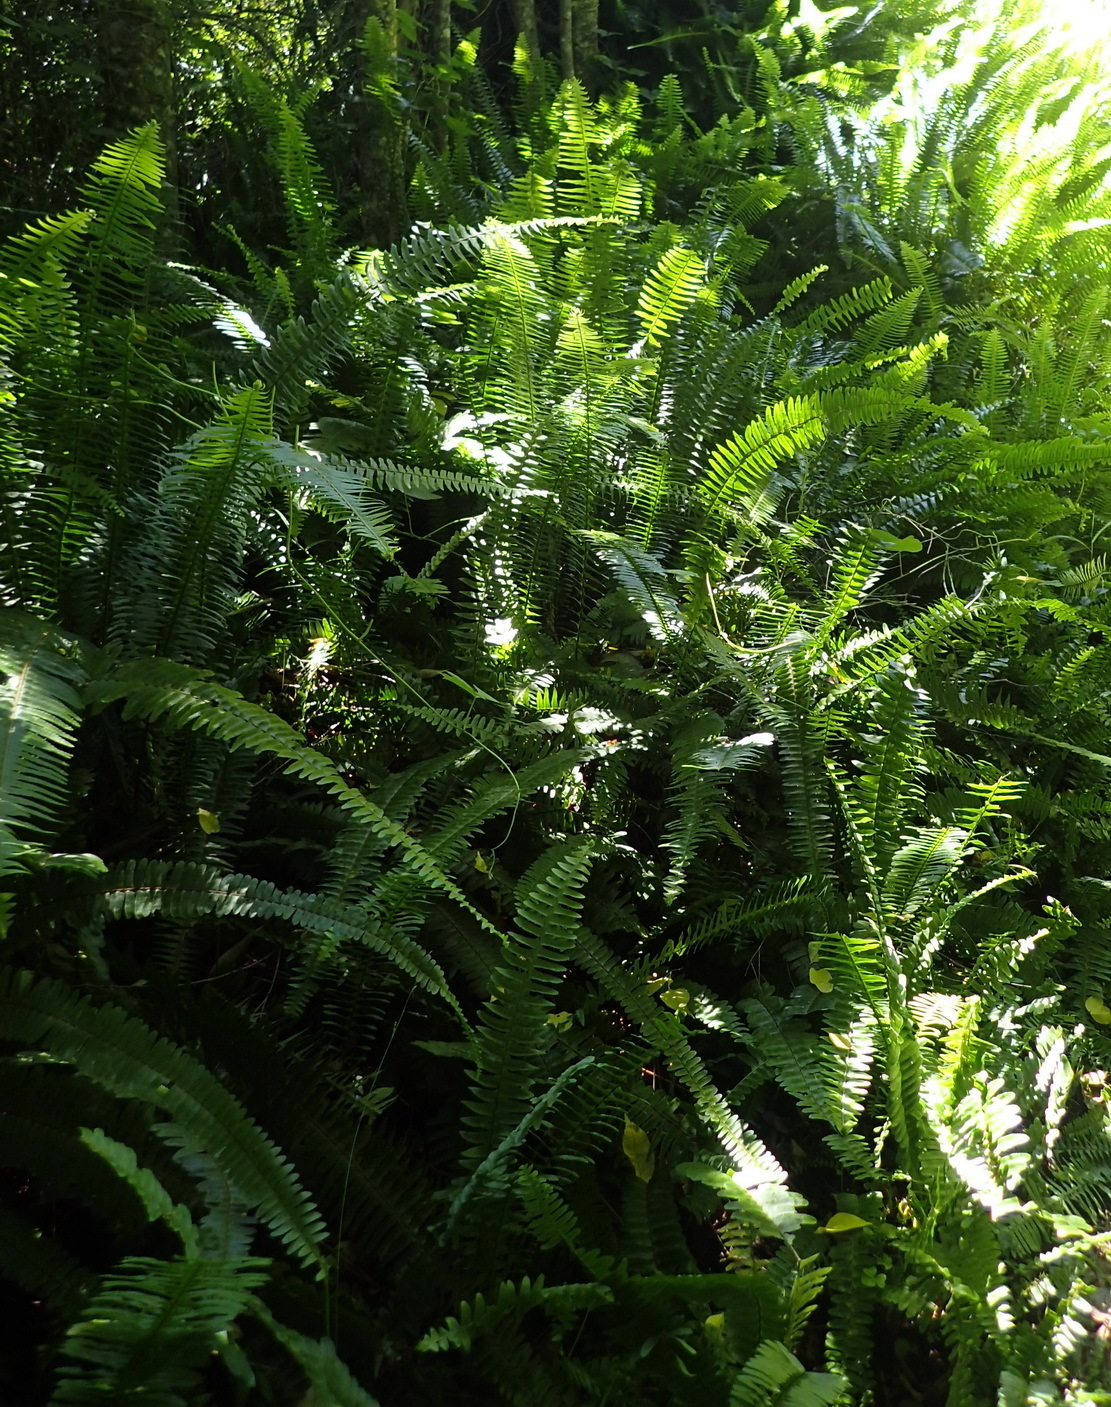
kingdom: Plantae
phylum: Tracheophyta
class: Polypodiopsida
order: Polypodiales
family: Nephrolepidaceae
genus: Nephrolepis
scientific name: Nephrolepis cordifolia
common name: Narrow swordfern
